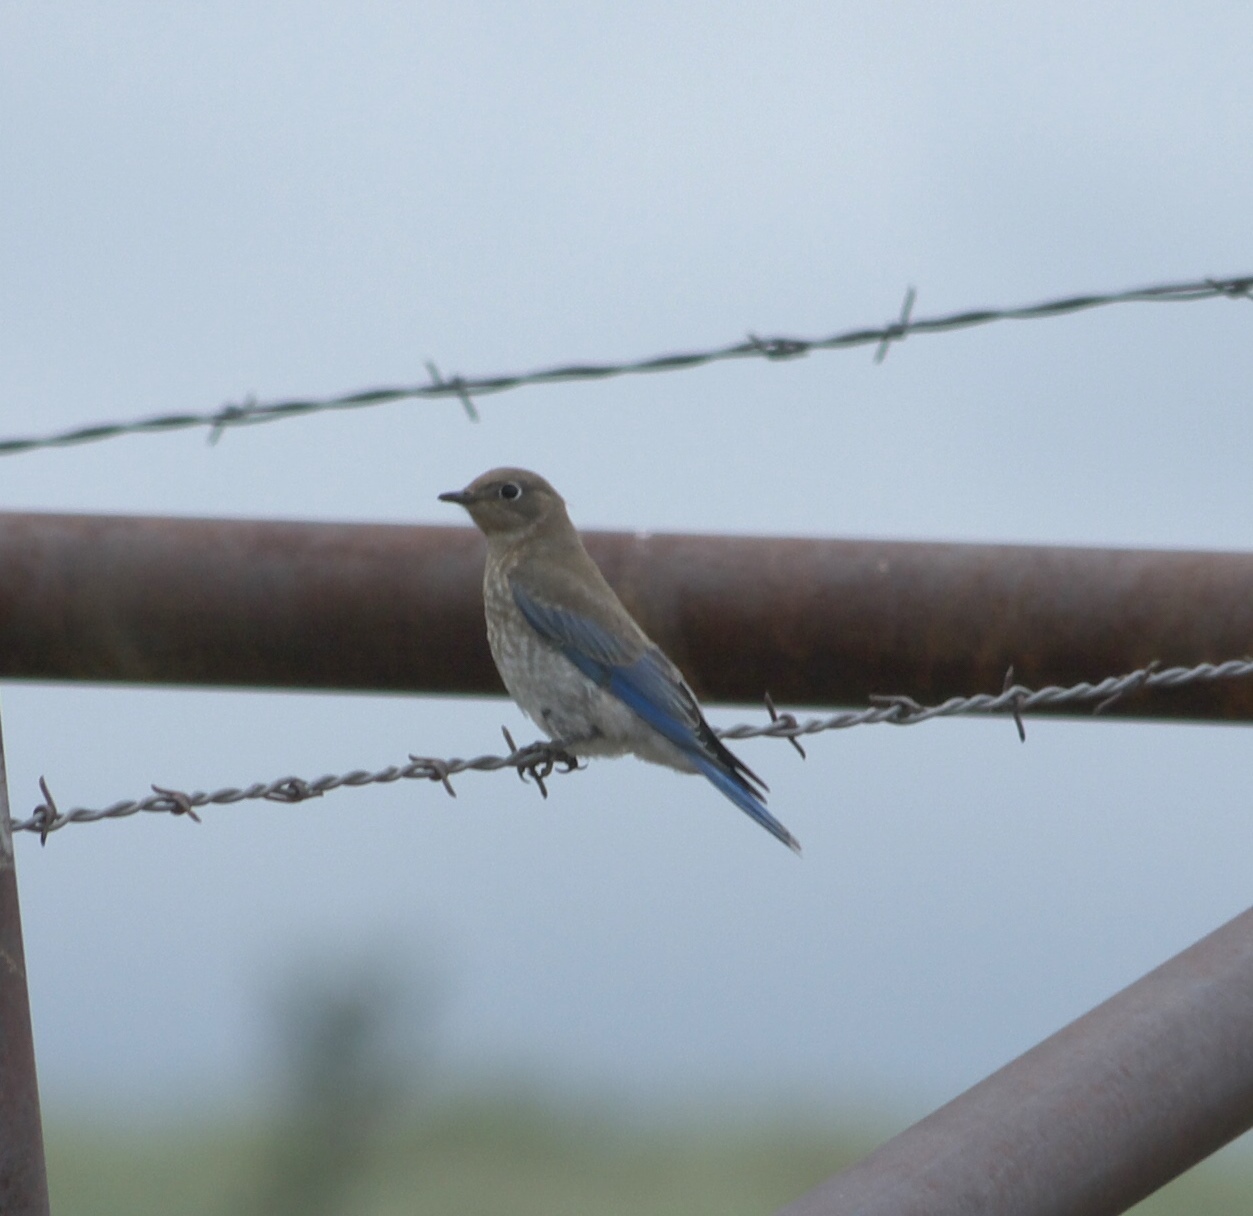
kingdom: Animalia
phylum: Chordata
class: Aves
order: Passeriformes
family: Turdidae
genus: Sialia
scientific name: Sialia currucoides
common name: Mountain bluebird
